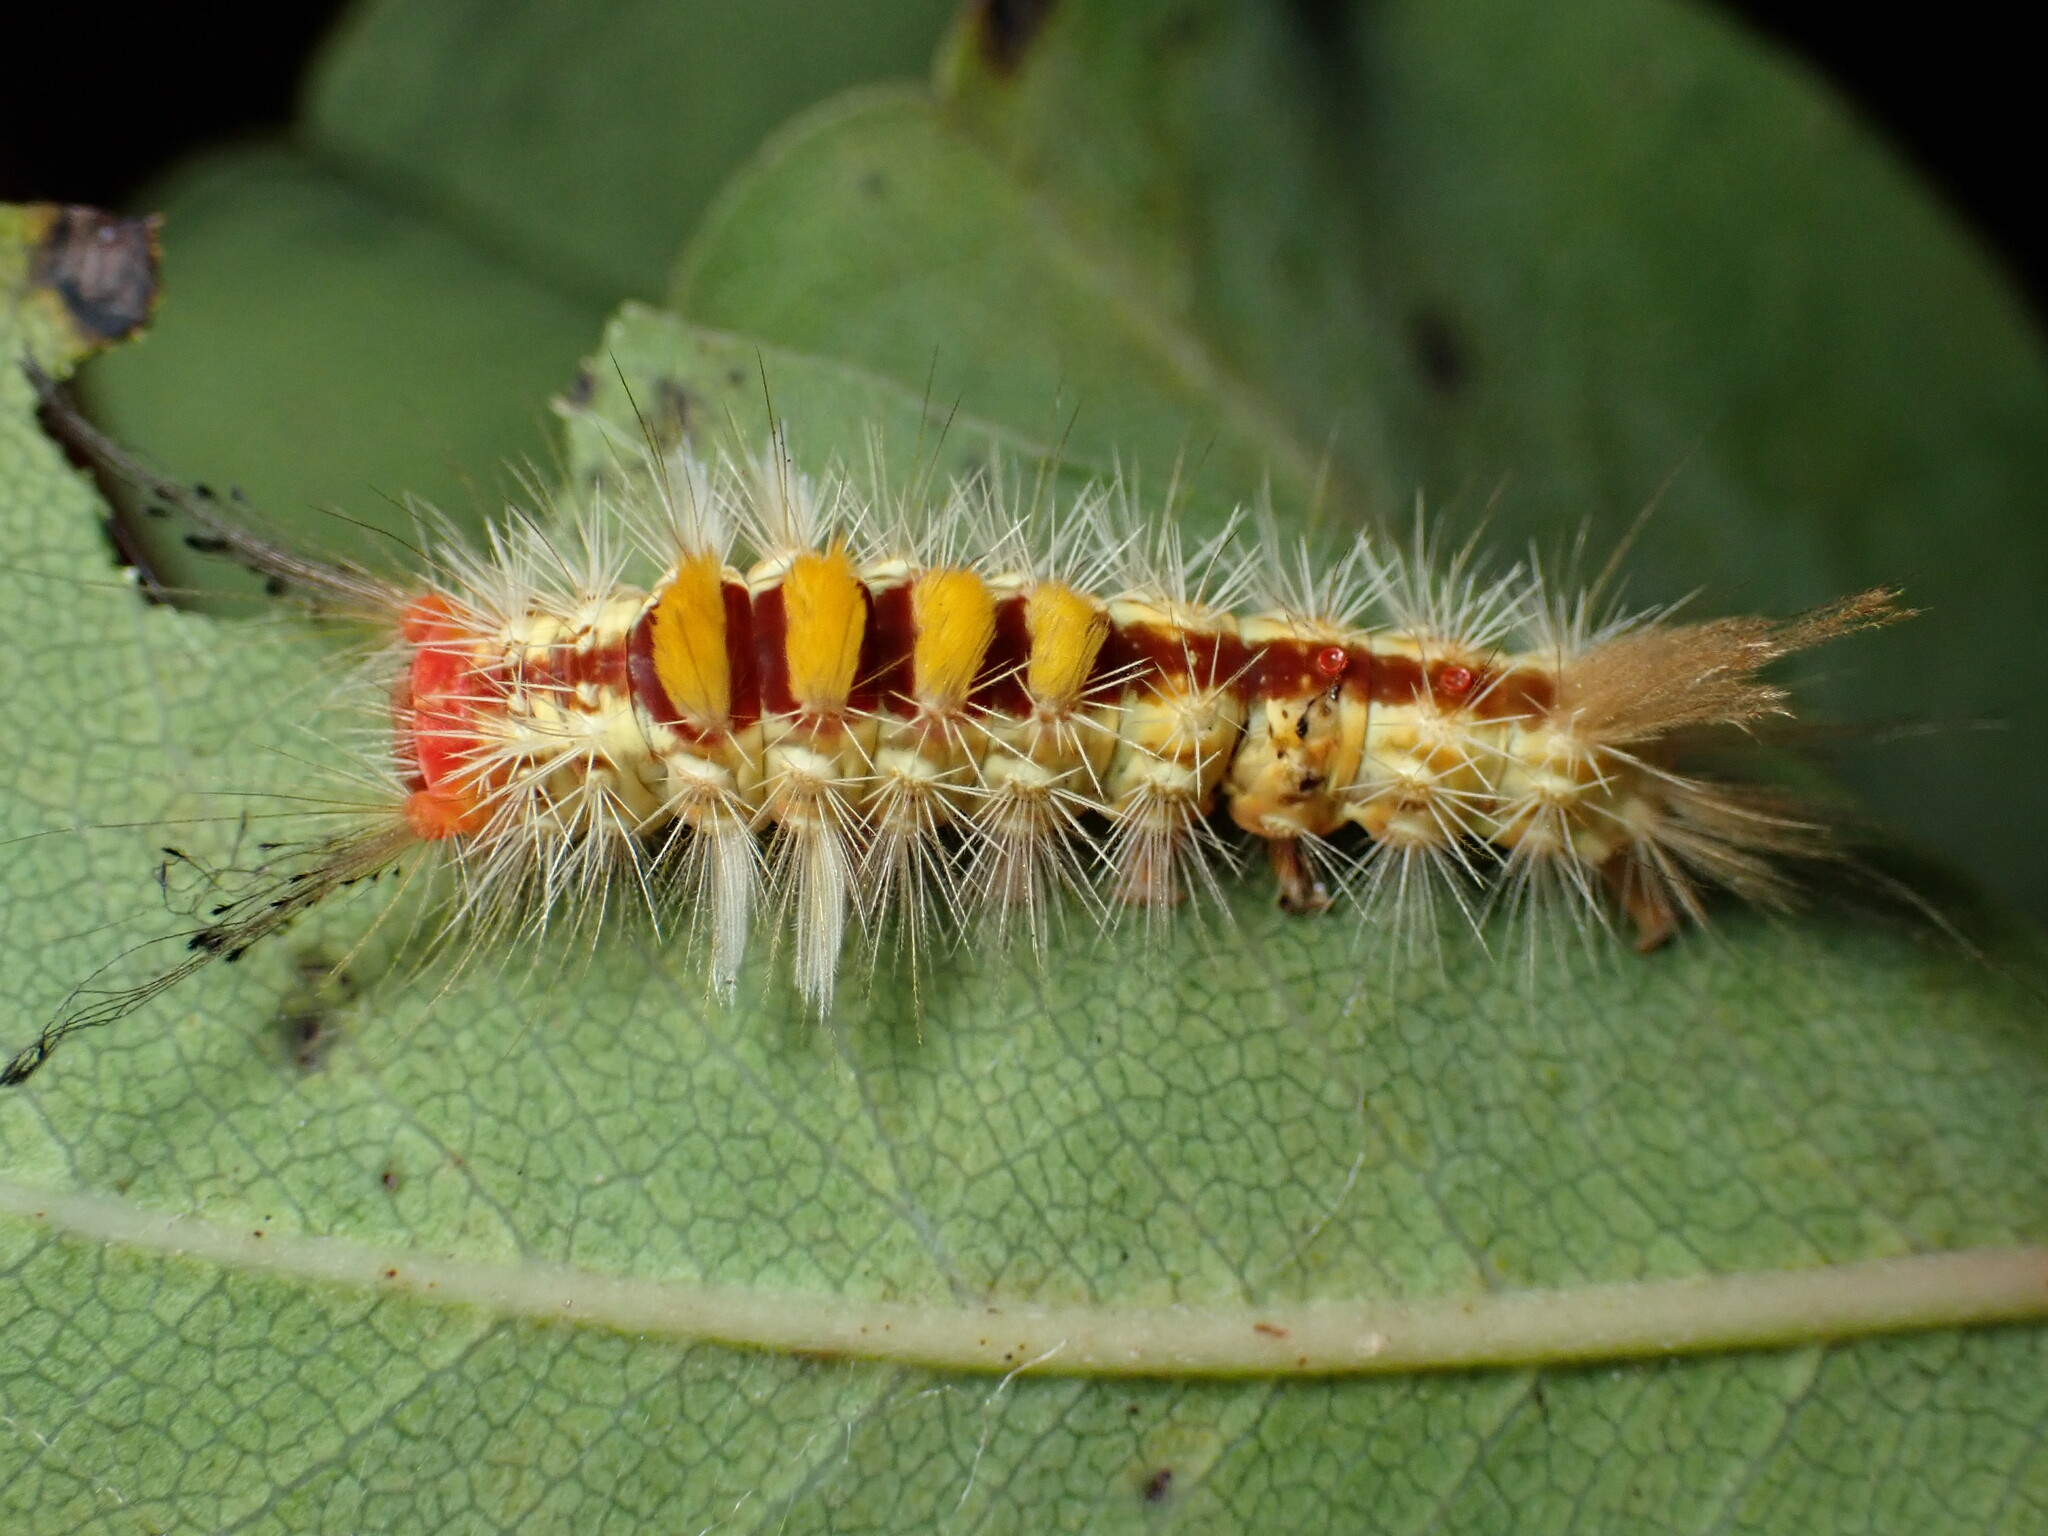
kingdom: Animalia
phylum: Arthropoda
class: Insecta
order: Lepidoptera
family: Erebidae
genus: Orgyia
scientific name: Orgyia australis
